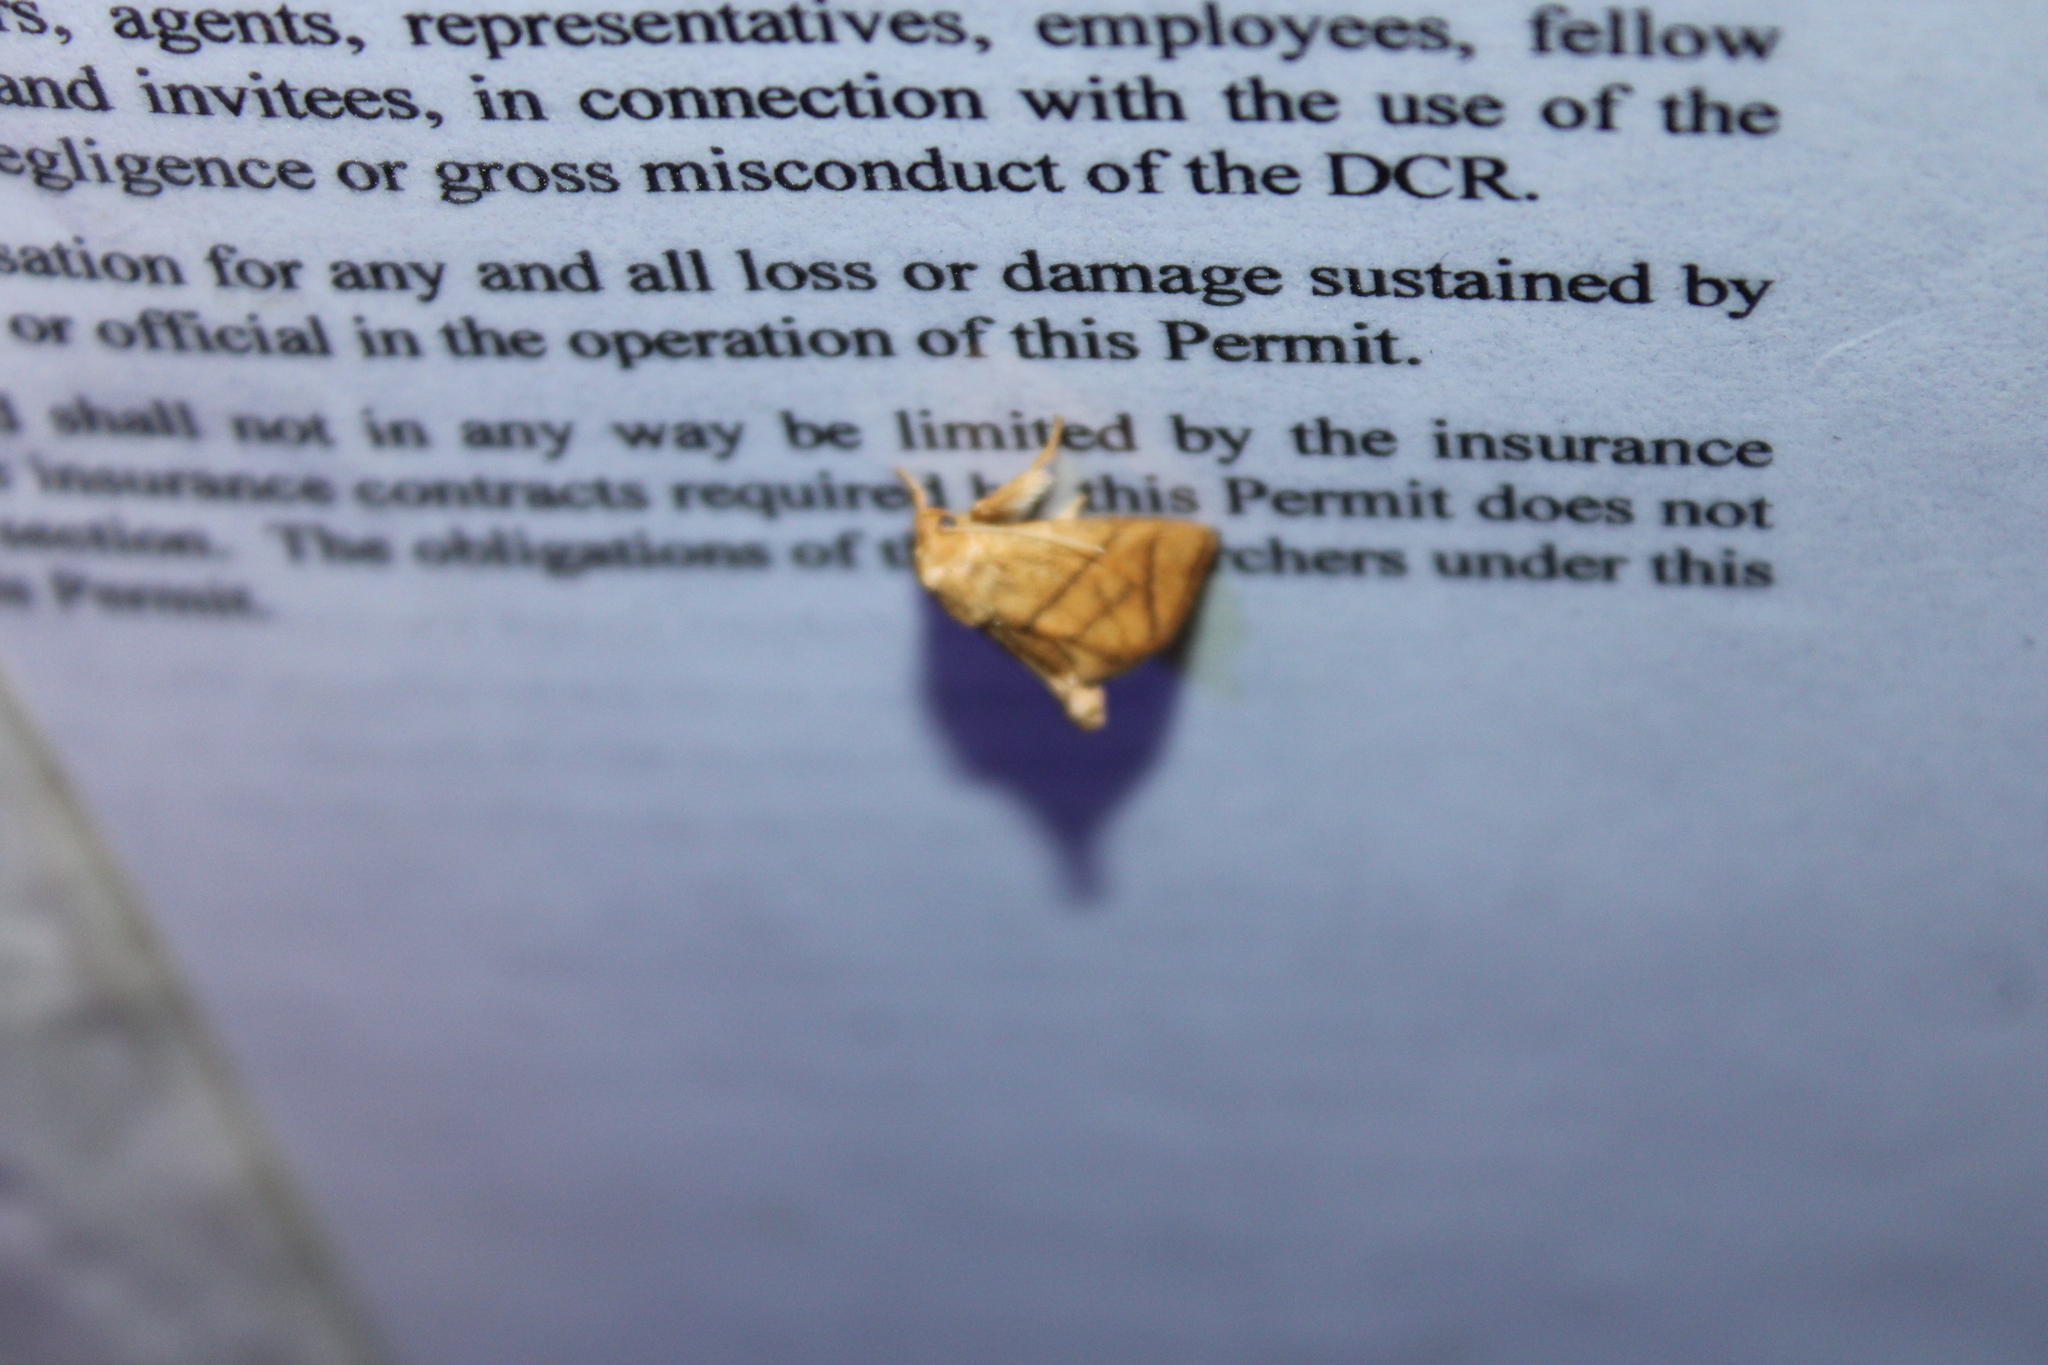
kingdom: Animalia
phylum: Arthropoda
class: Insecta
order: Lepidoptera
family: Limacodidae
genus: Apoda
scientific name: Apoda y-inversa
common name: Yellow-collared slug moth
